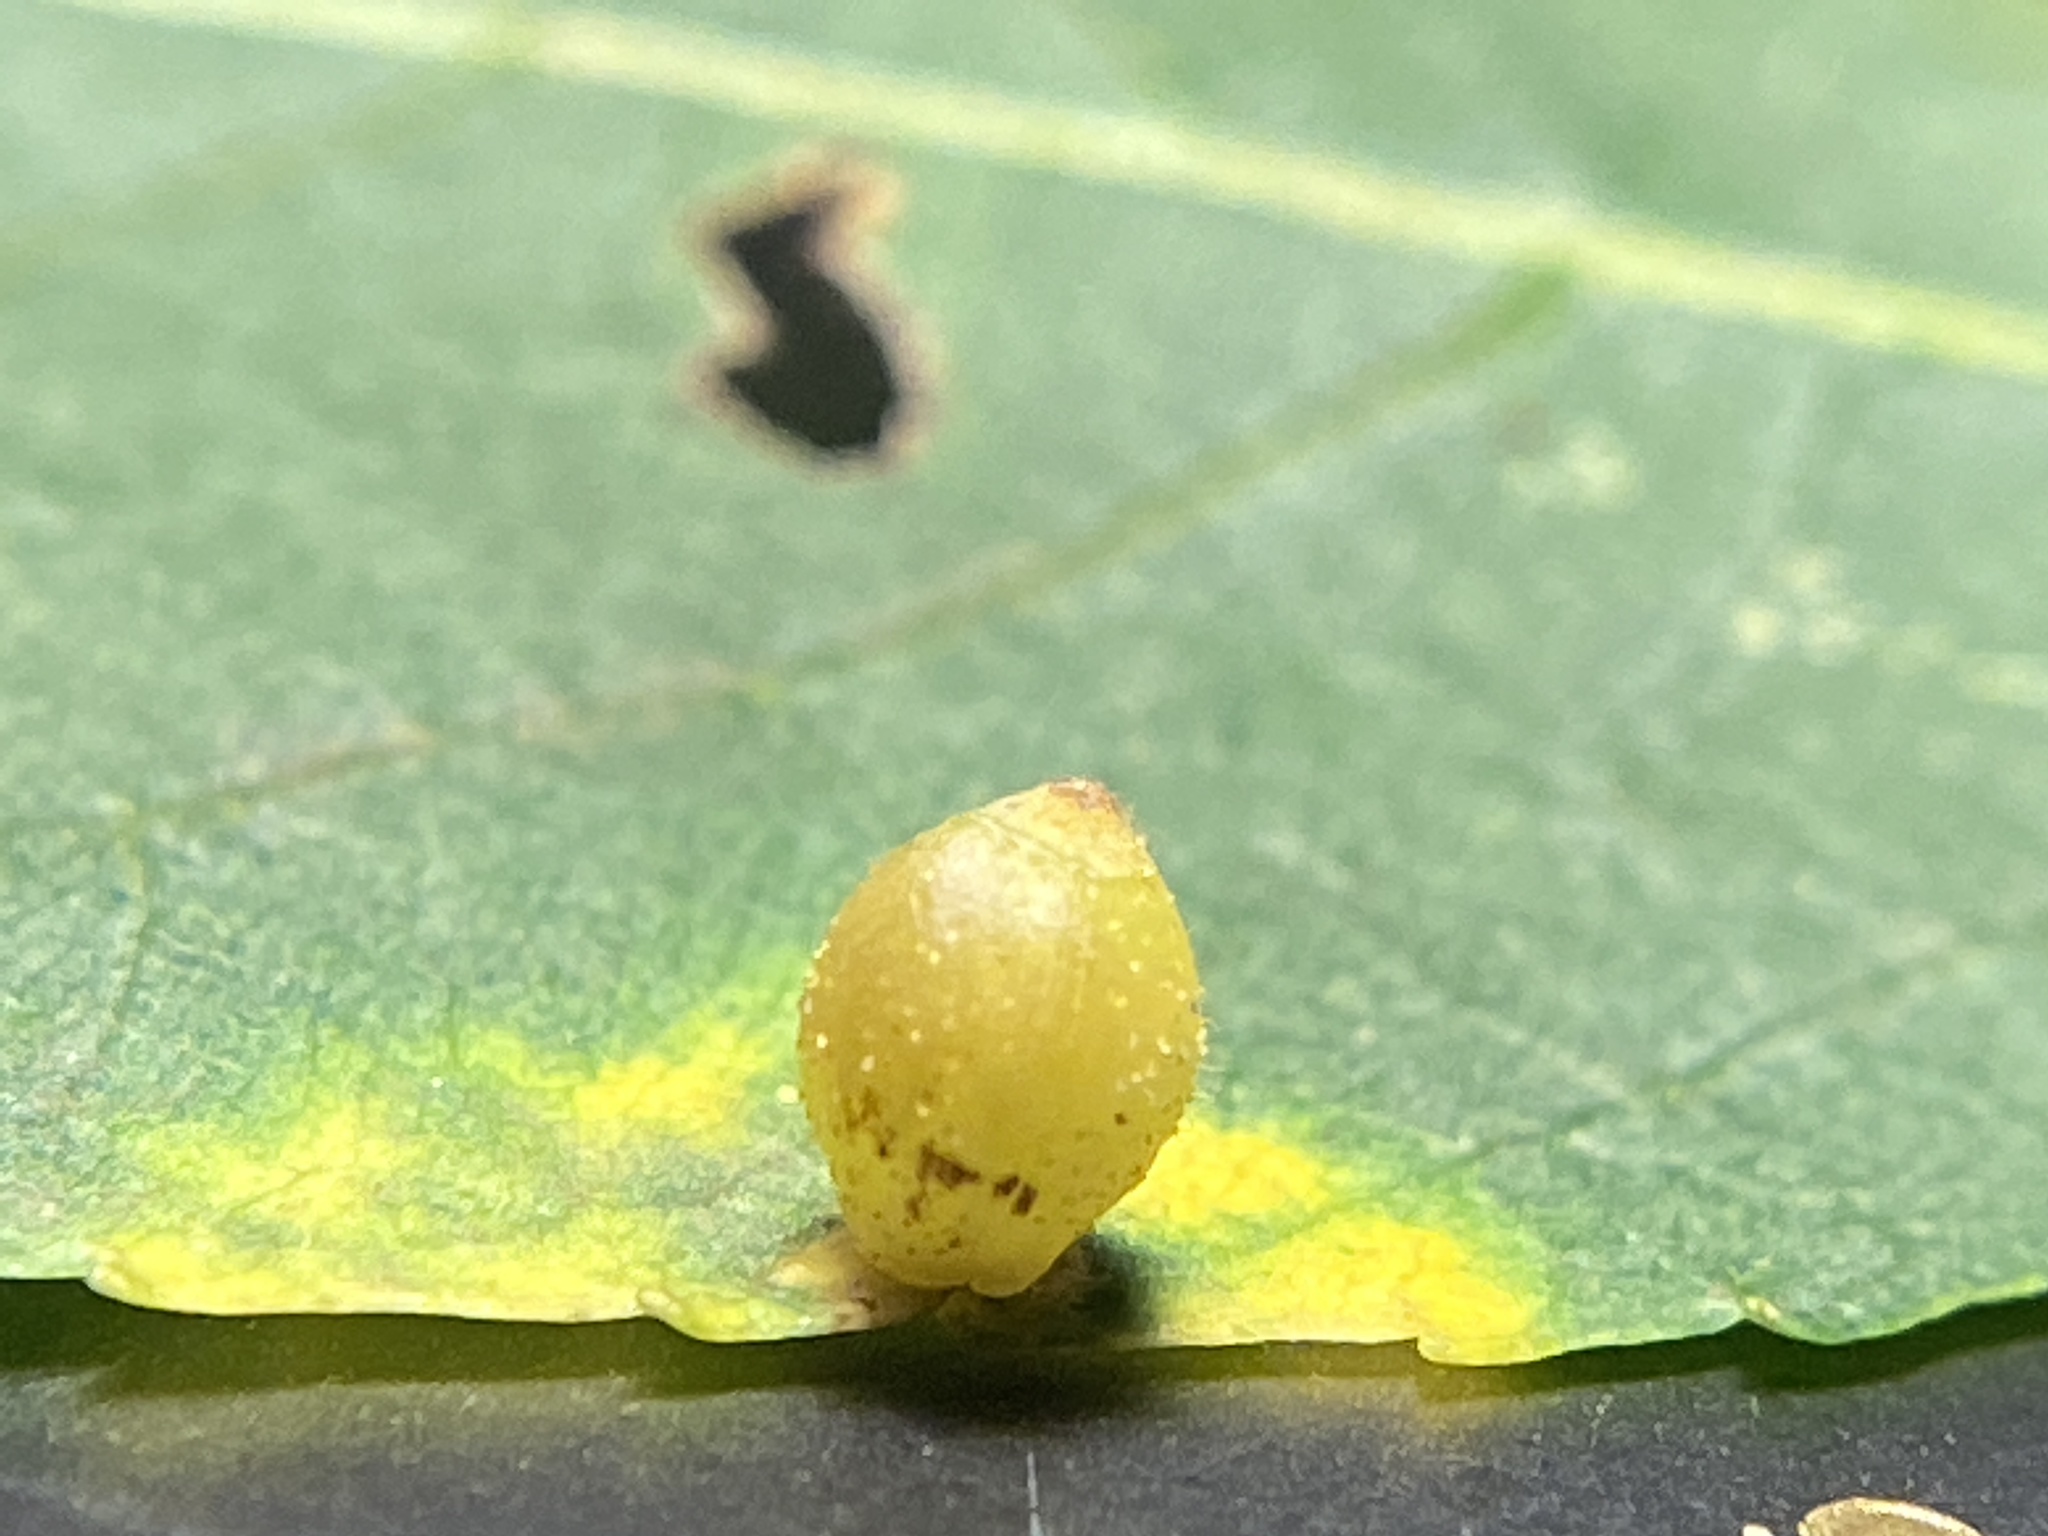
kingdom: Animalia
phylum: Arthropoda
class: Insecta
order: Diptera
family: Cecidomyiidae
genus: Caryomyia
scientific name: Caryomyia viscidolium
